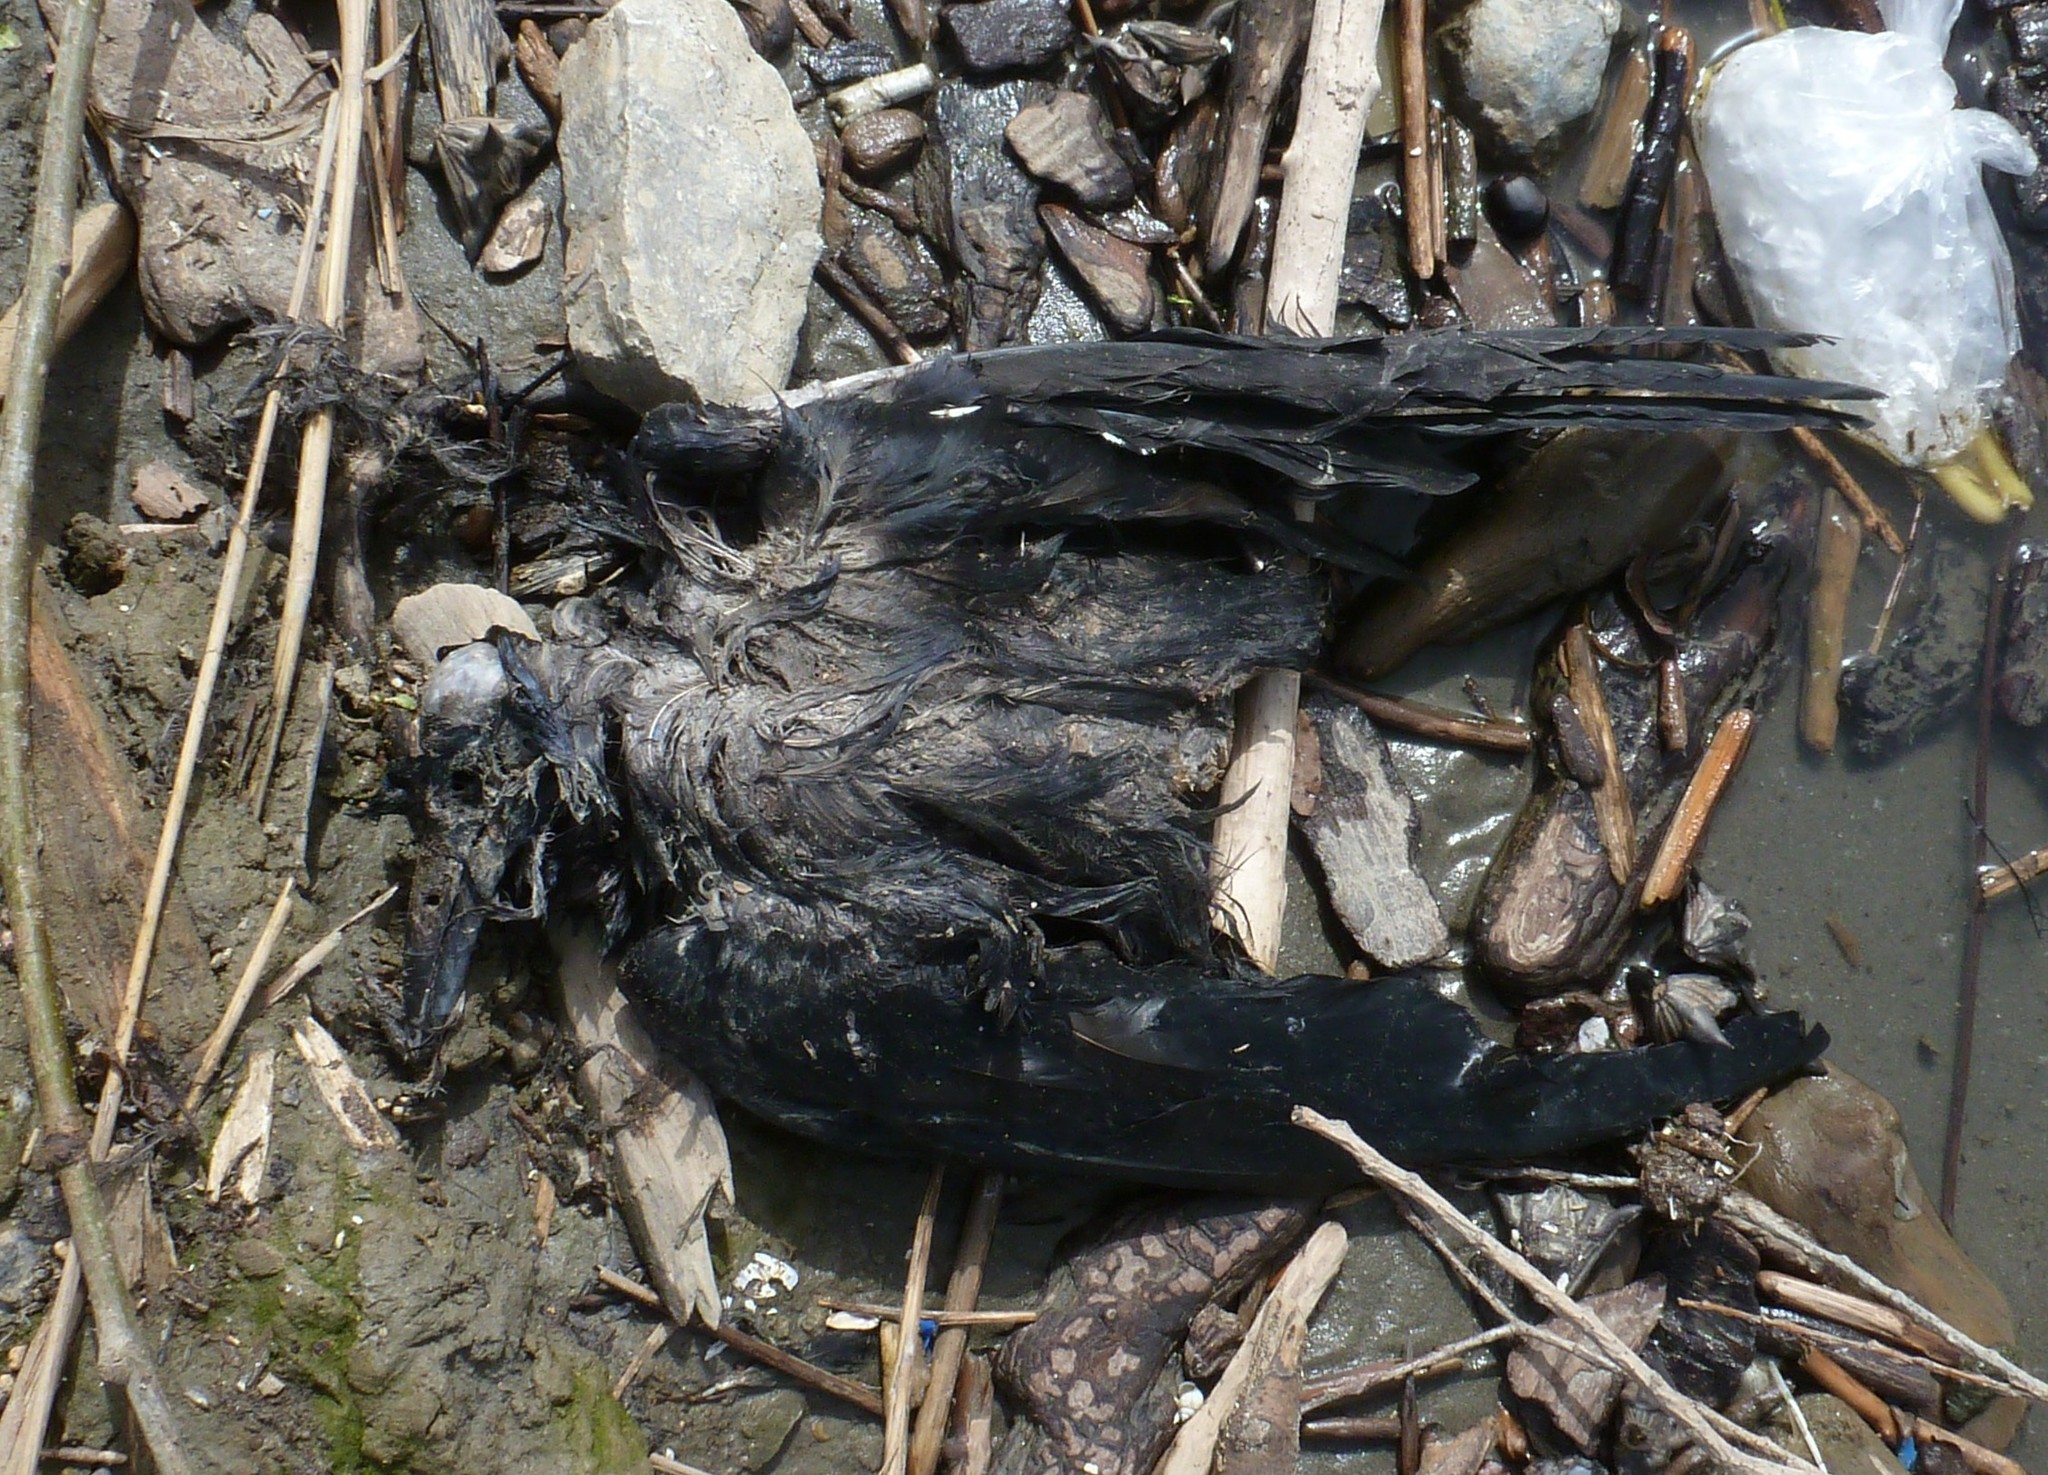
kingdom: Animalia
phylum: Chordata
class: Aves
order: Passeriformes
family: Corvidae
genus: Corvus
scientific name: Corvus frugilegus
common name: Rook
